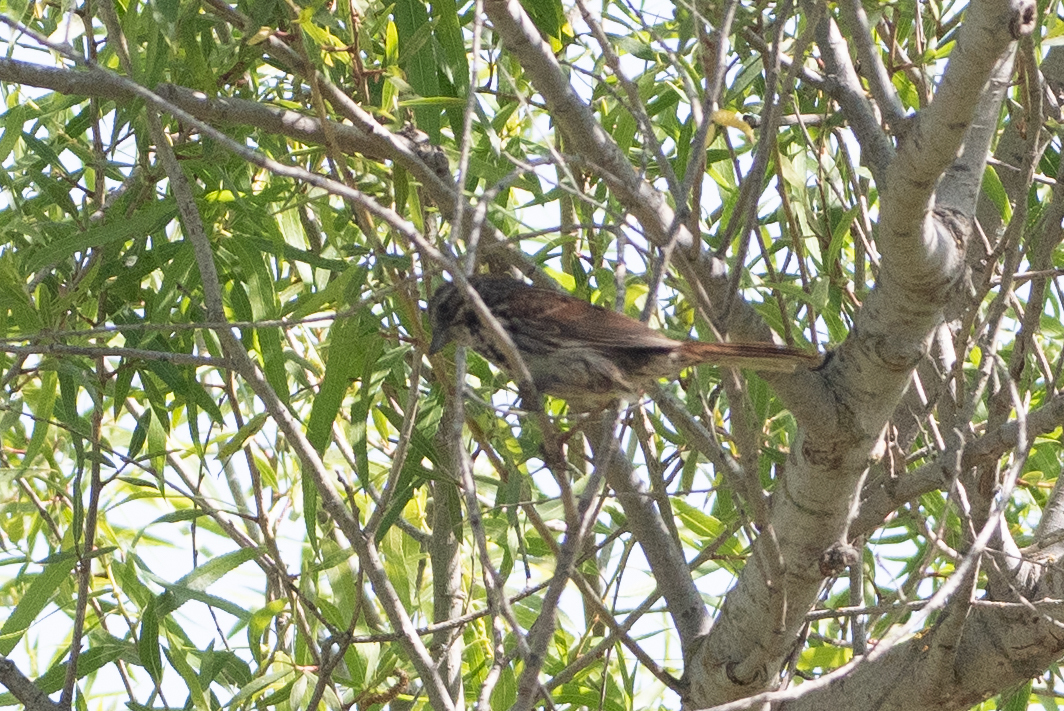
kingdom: Animalia
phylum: Chordata
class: Aves
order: Passeriformes
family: Passerellidae
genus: Melospiza
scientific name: Melospiza melodia
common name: Song sparrow
